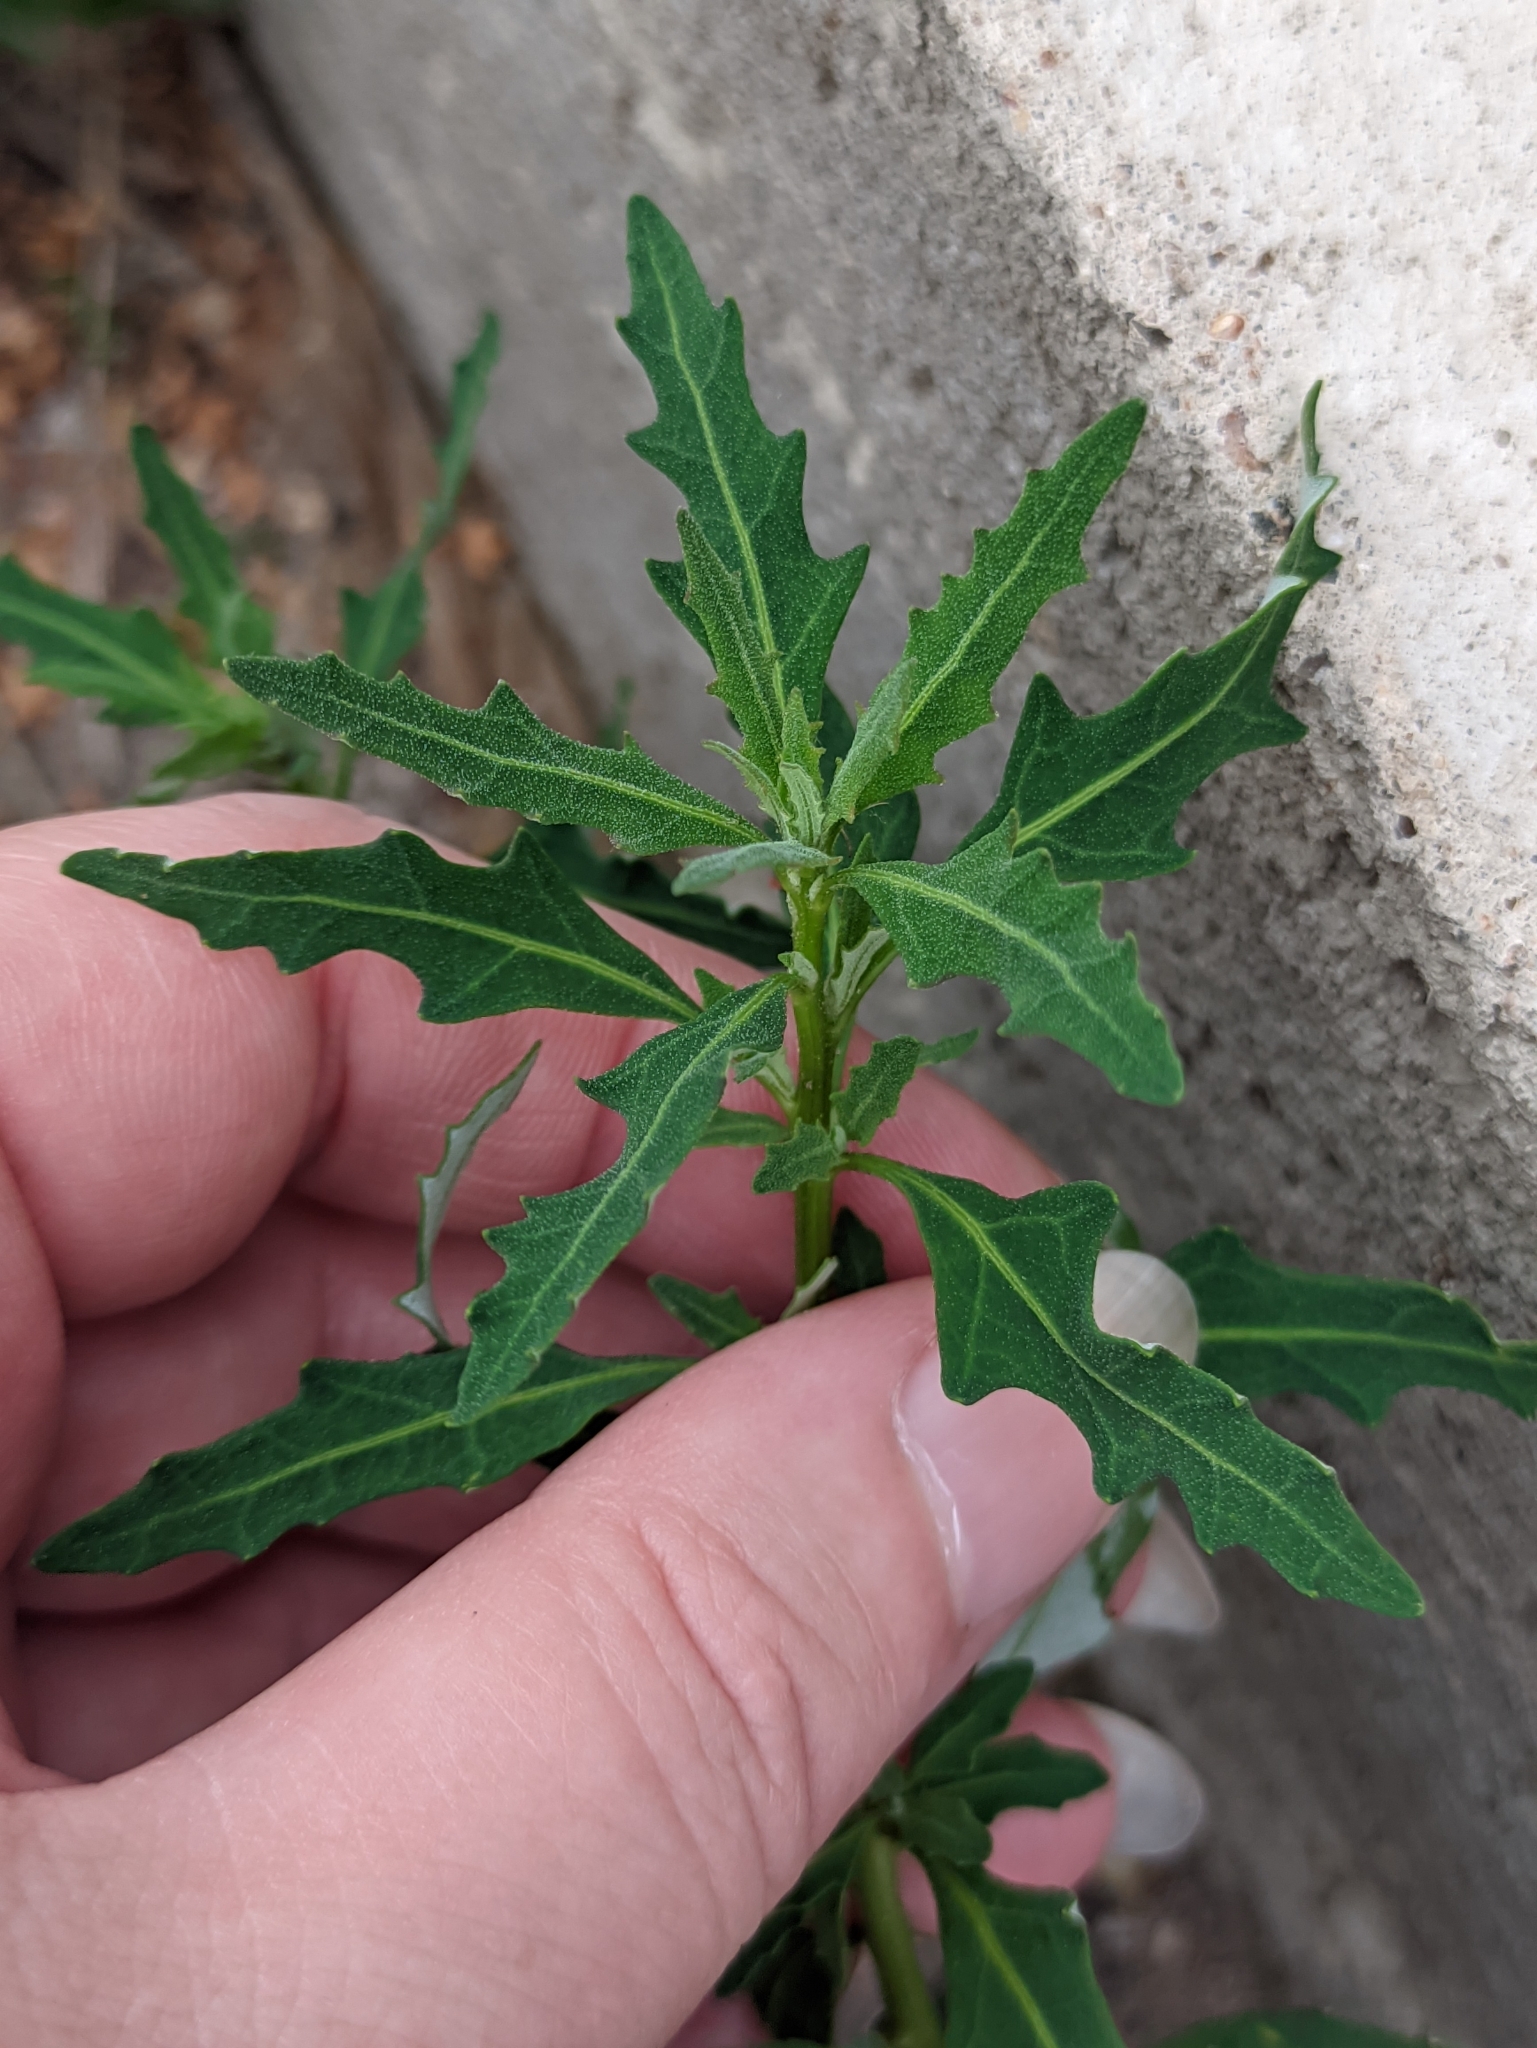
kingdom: Plantae
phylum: Tracheophyta
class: Magnoliopsida
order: Caryophyllales
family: Amaranthaceae
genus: Oxybasis
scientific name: Oxybasis glauca
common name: Glaucous goosefoot
